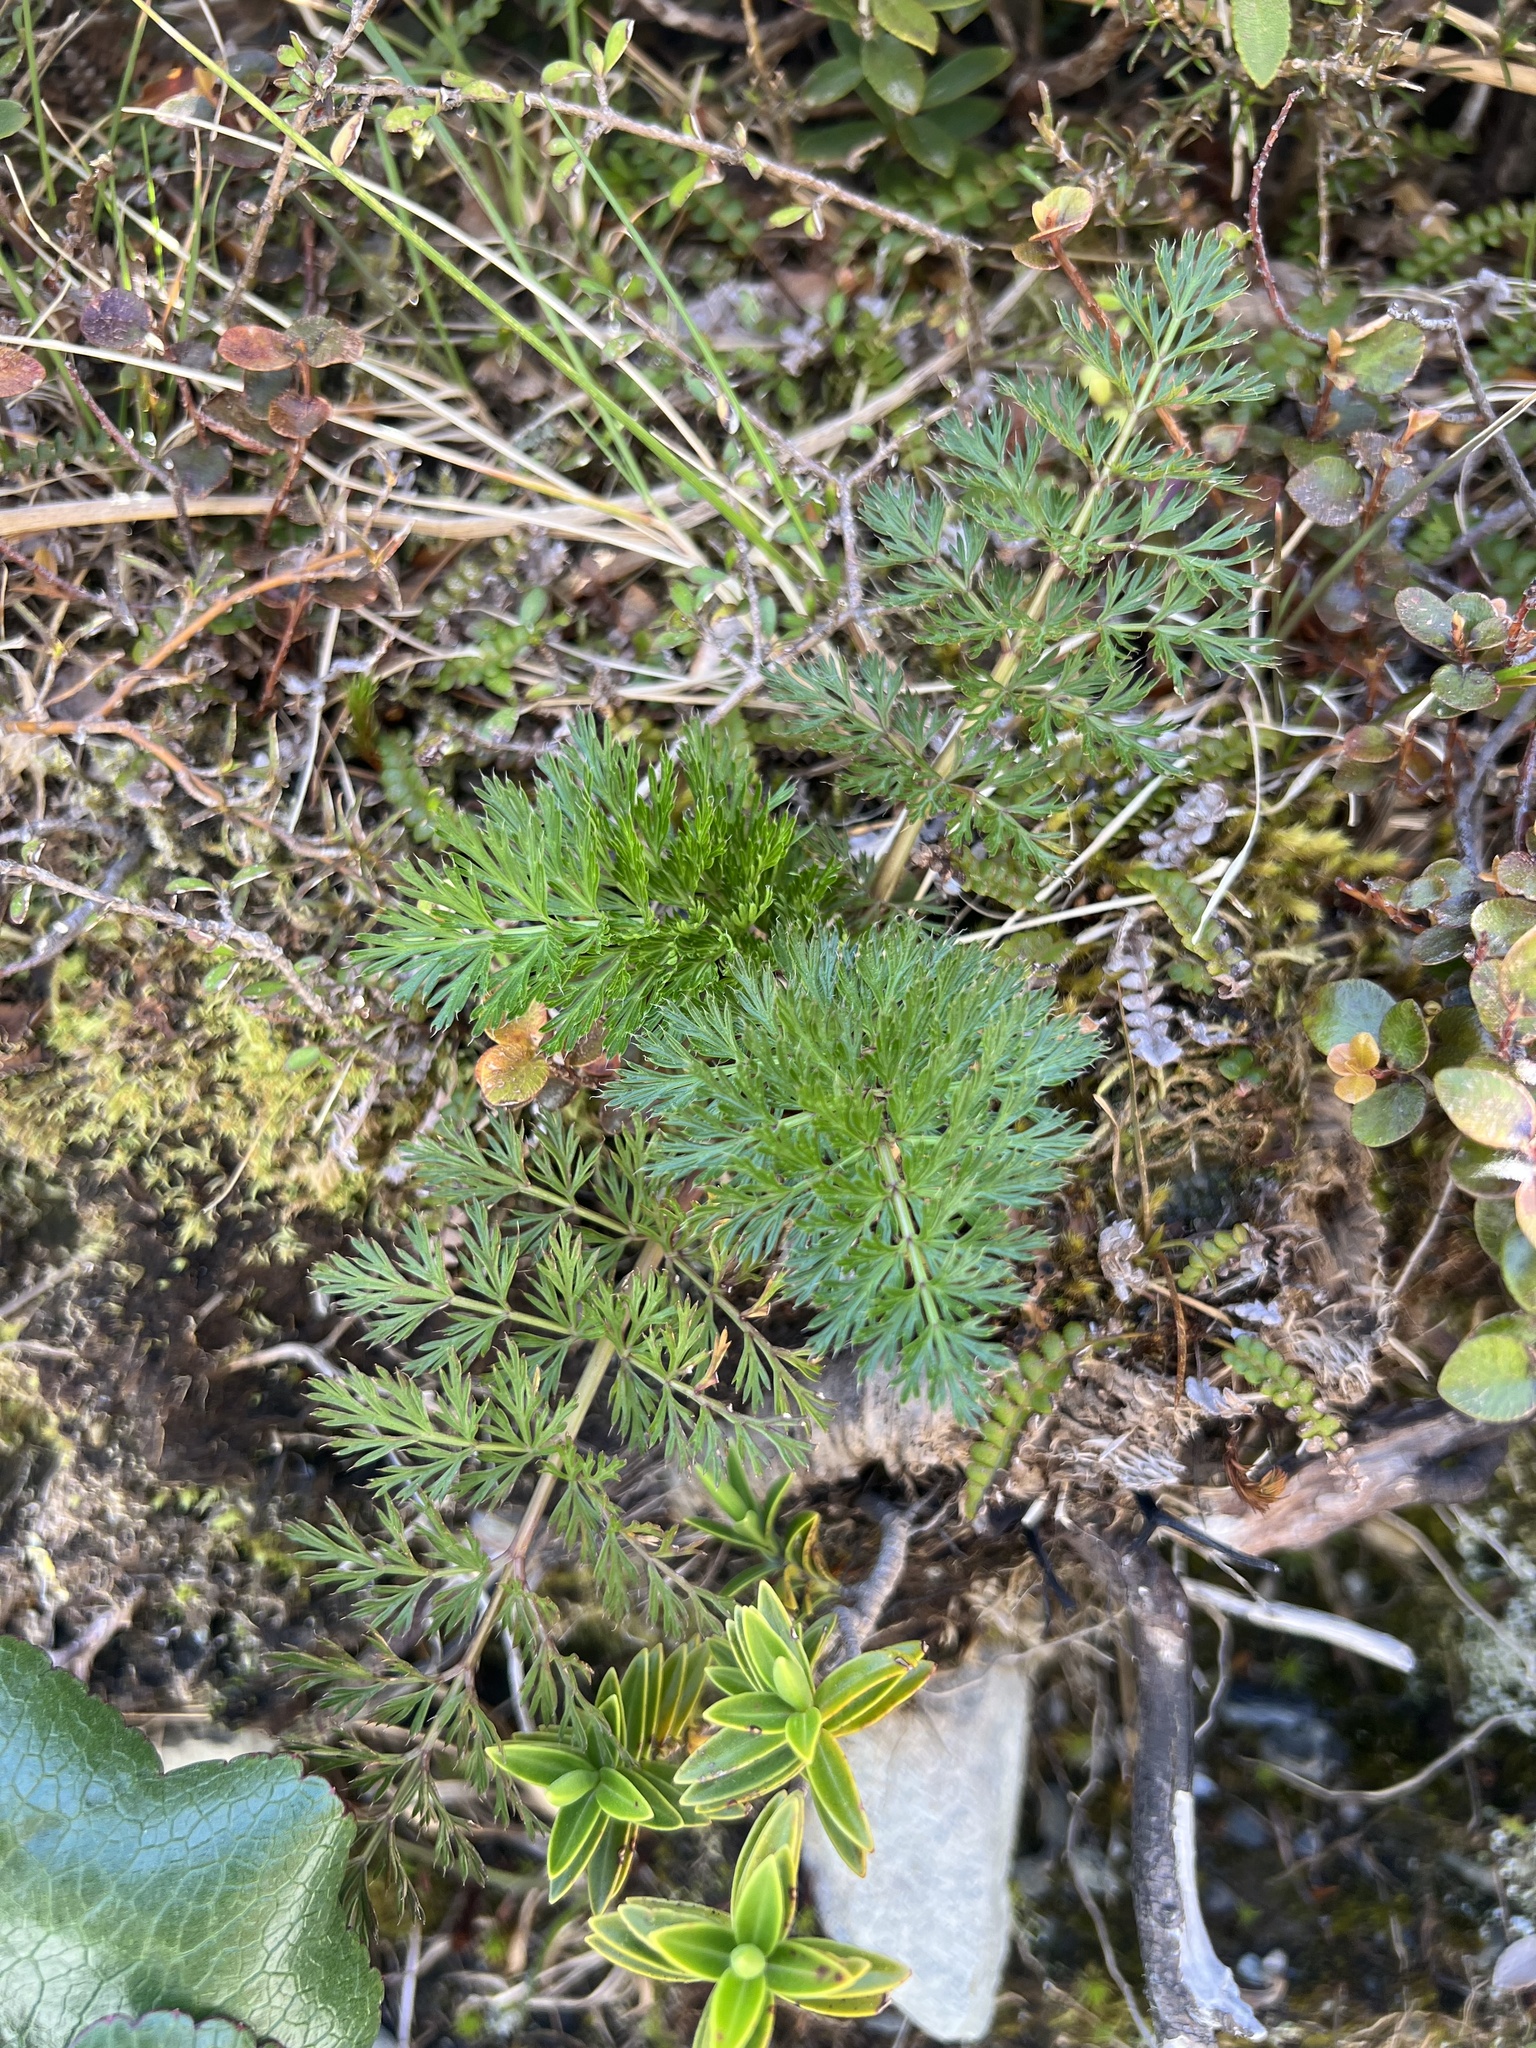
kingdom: Plantae
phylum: Tracheophyta
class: Magnoliopsida
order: Apiales
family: Apiaceae
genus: Anisotome
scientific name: Anisotome haastii
